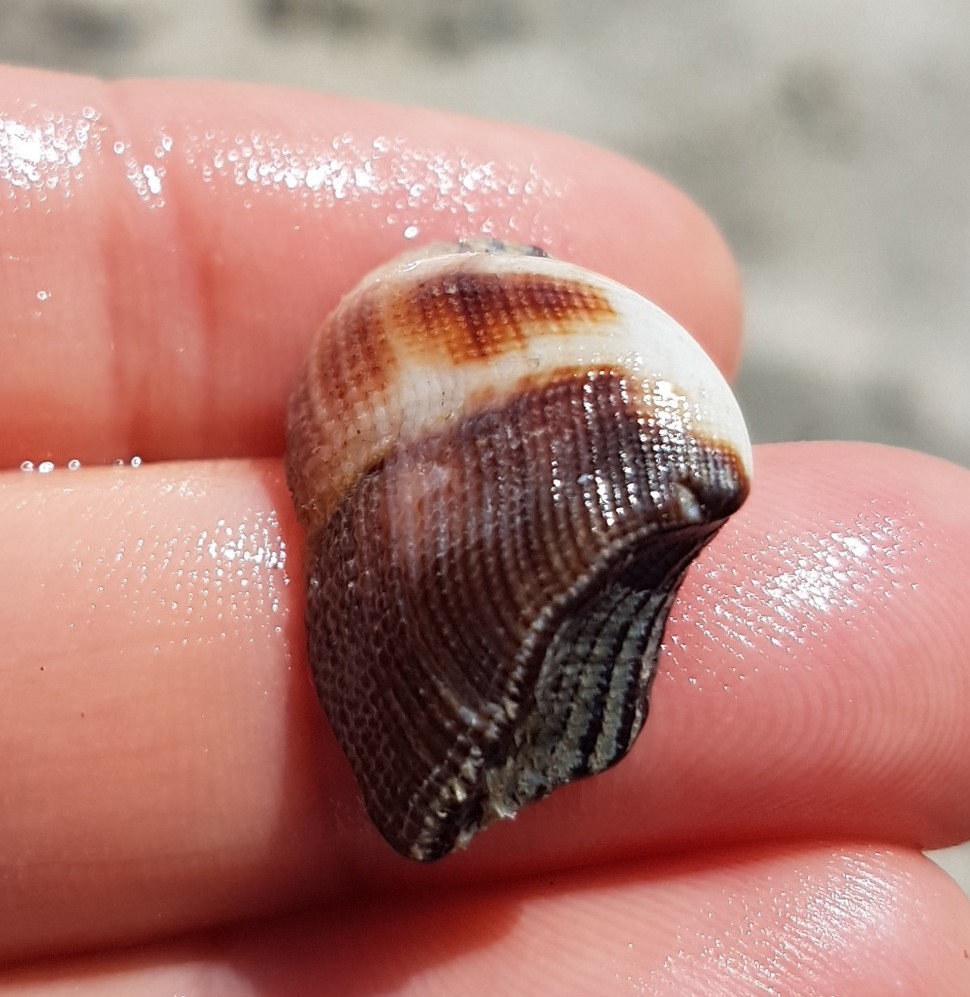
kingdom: Animalia
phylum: Mollusca
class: Bivalvia
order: Arcida
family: Arcidae
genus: Lamarcka
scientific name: Lamarcka mutabilis
